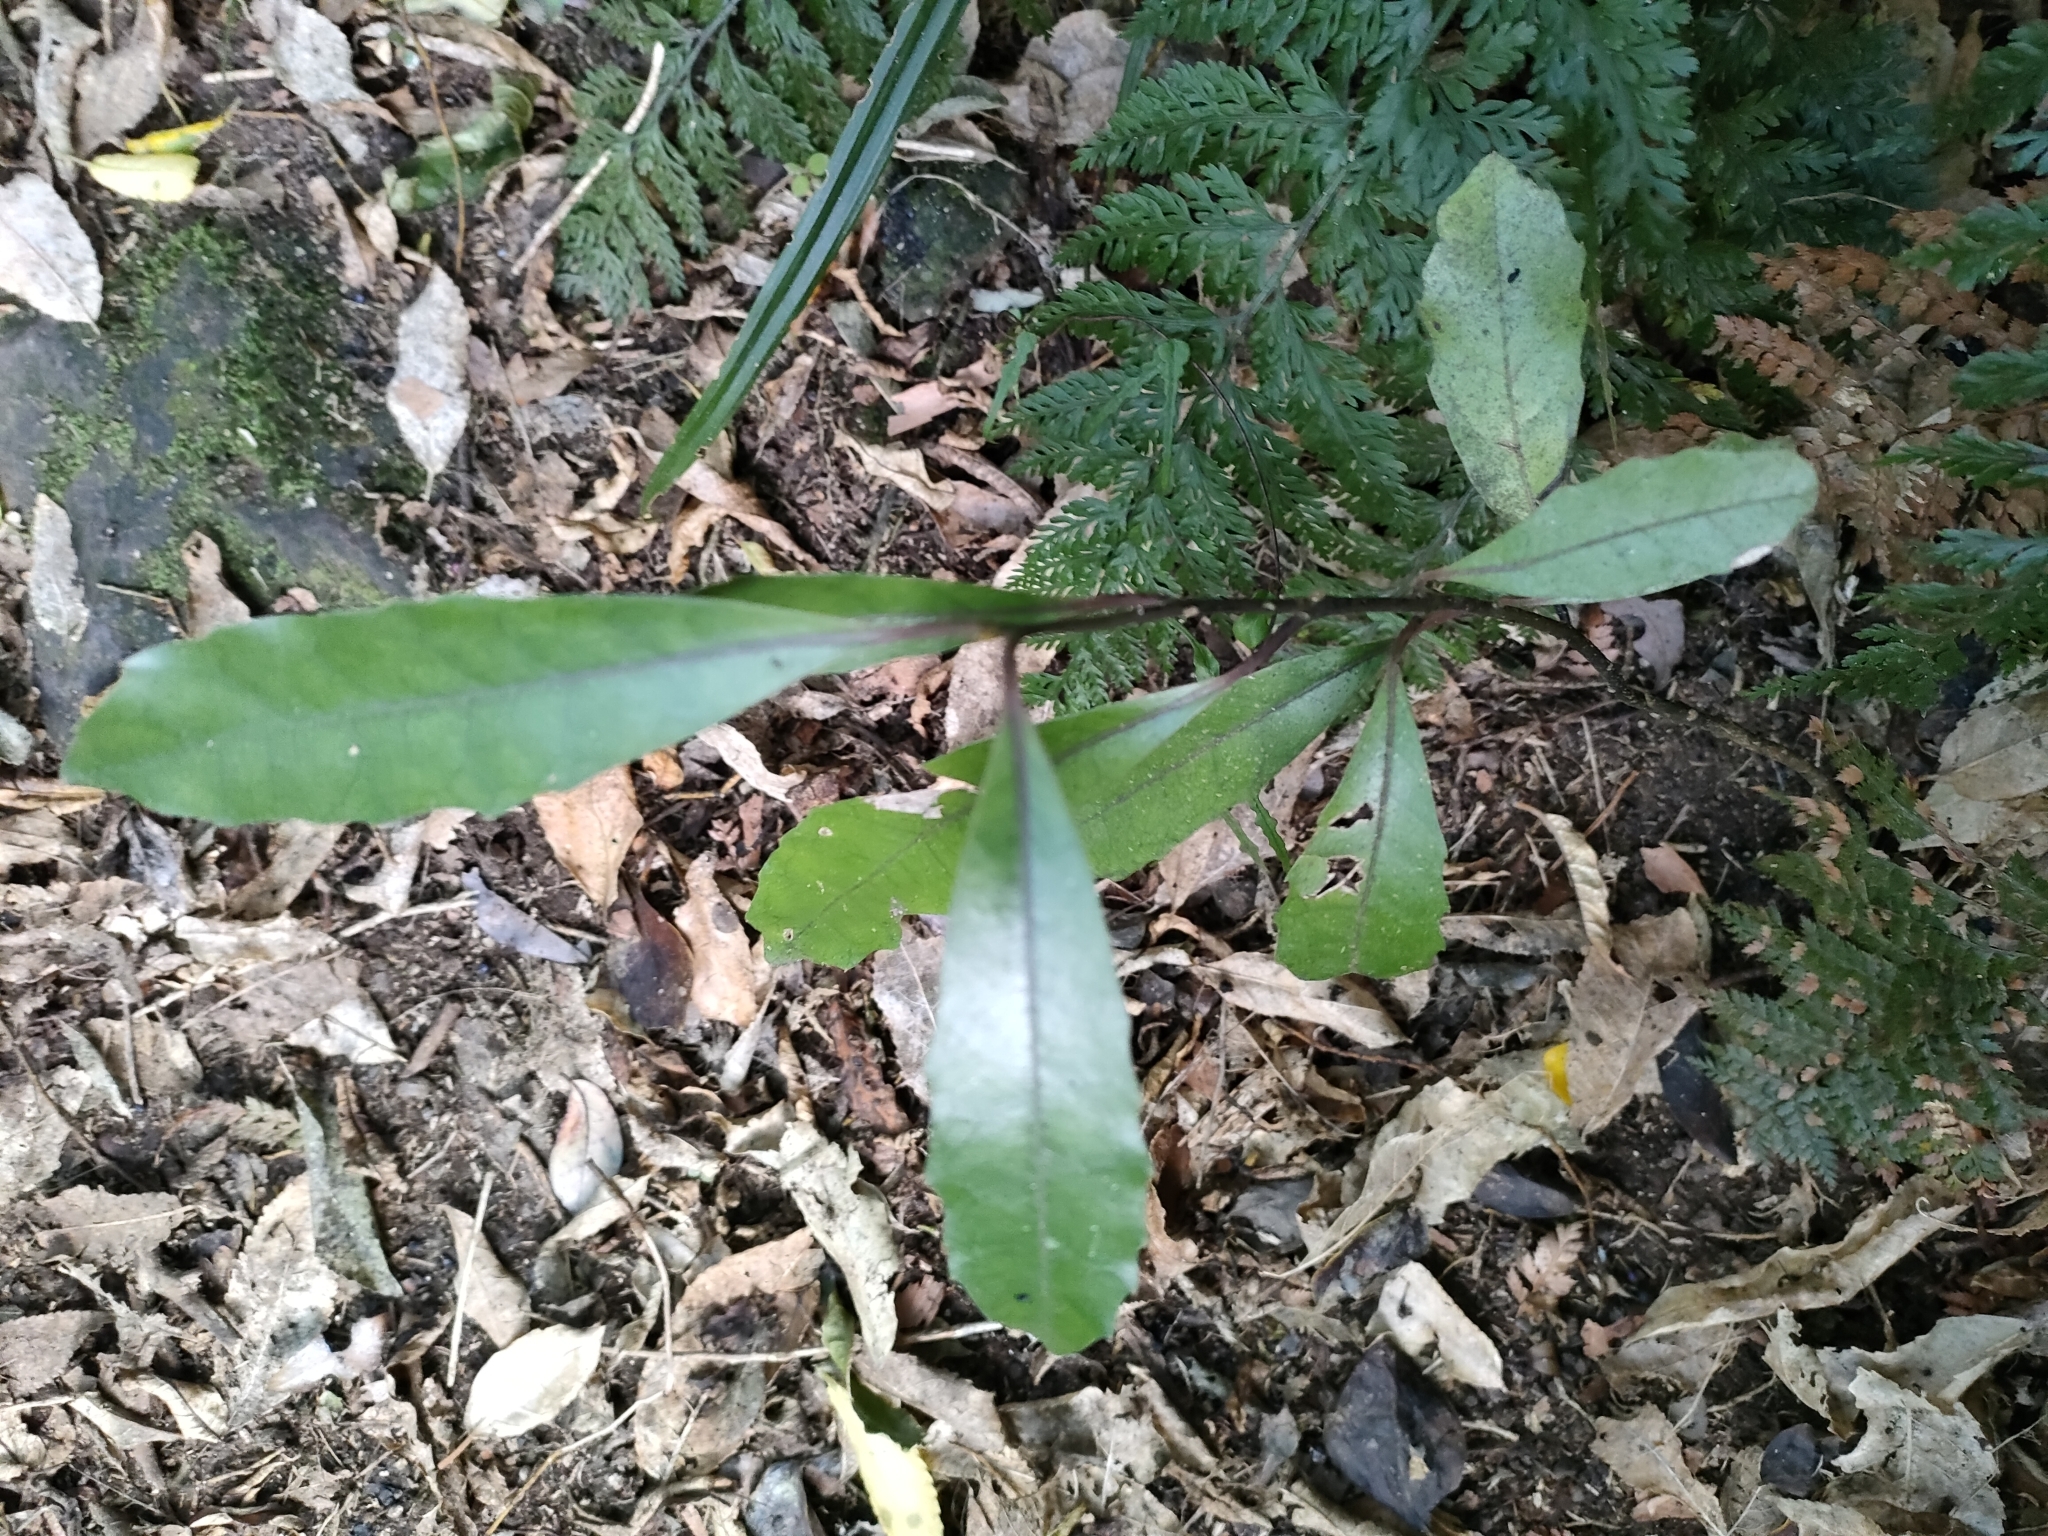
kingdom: Plantae
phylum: Tracheophyta
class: Magnoliopsida
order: Laurales
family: Monimiaceae
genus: Hedycarya
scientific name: Hedycarya arborea
